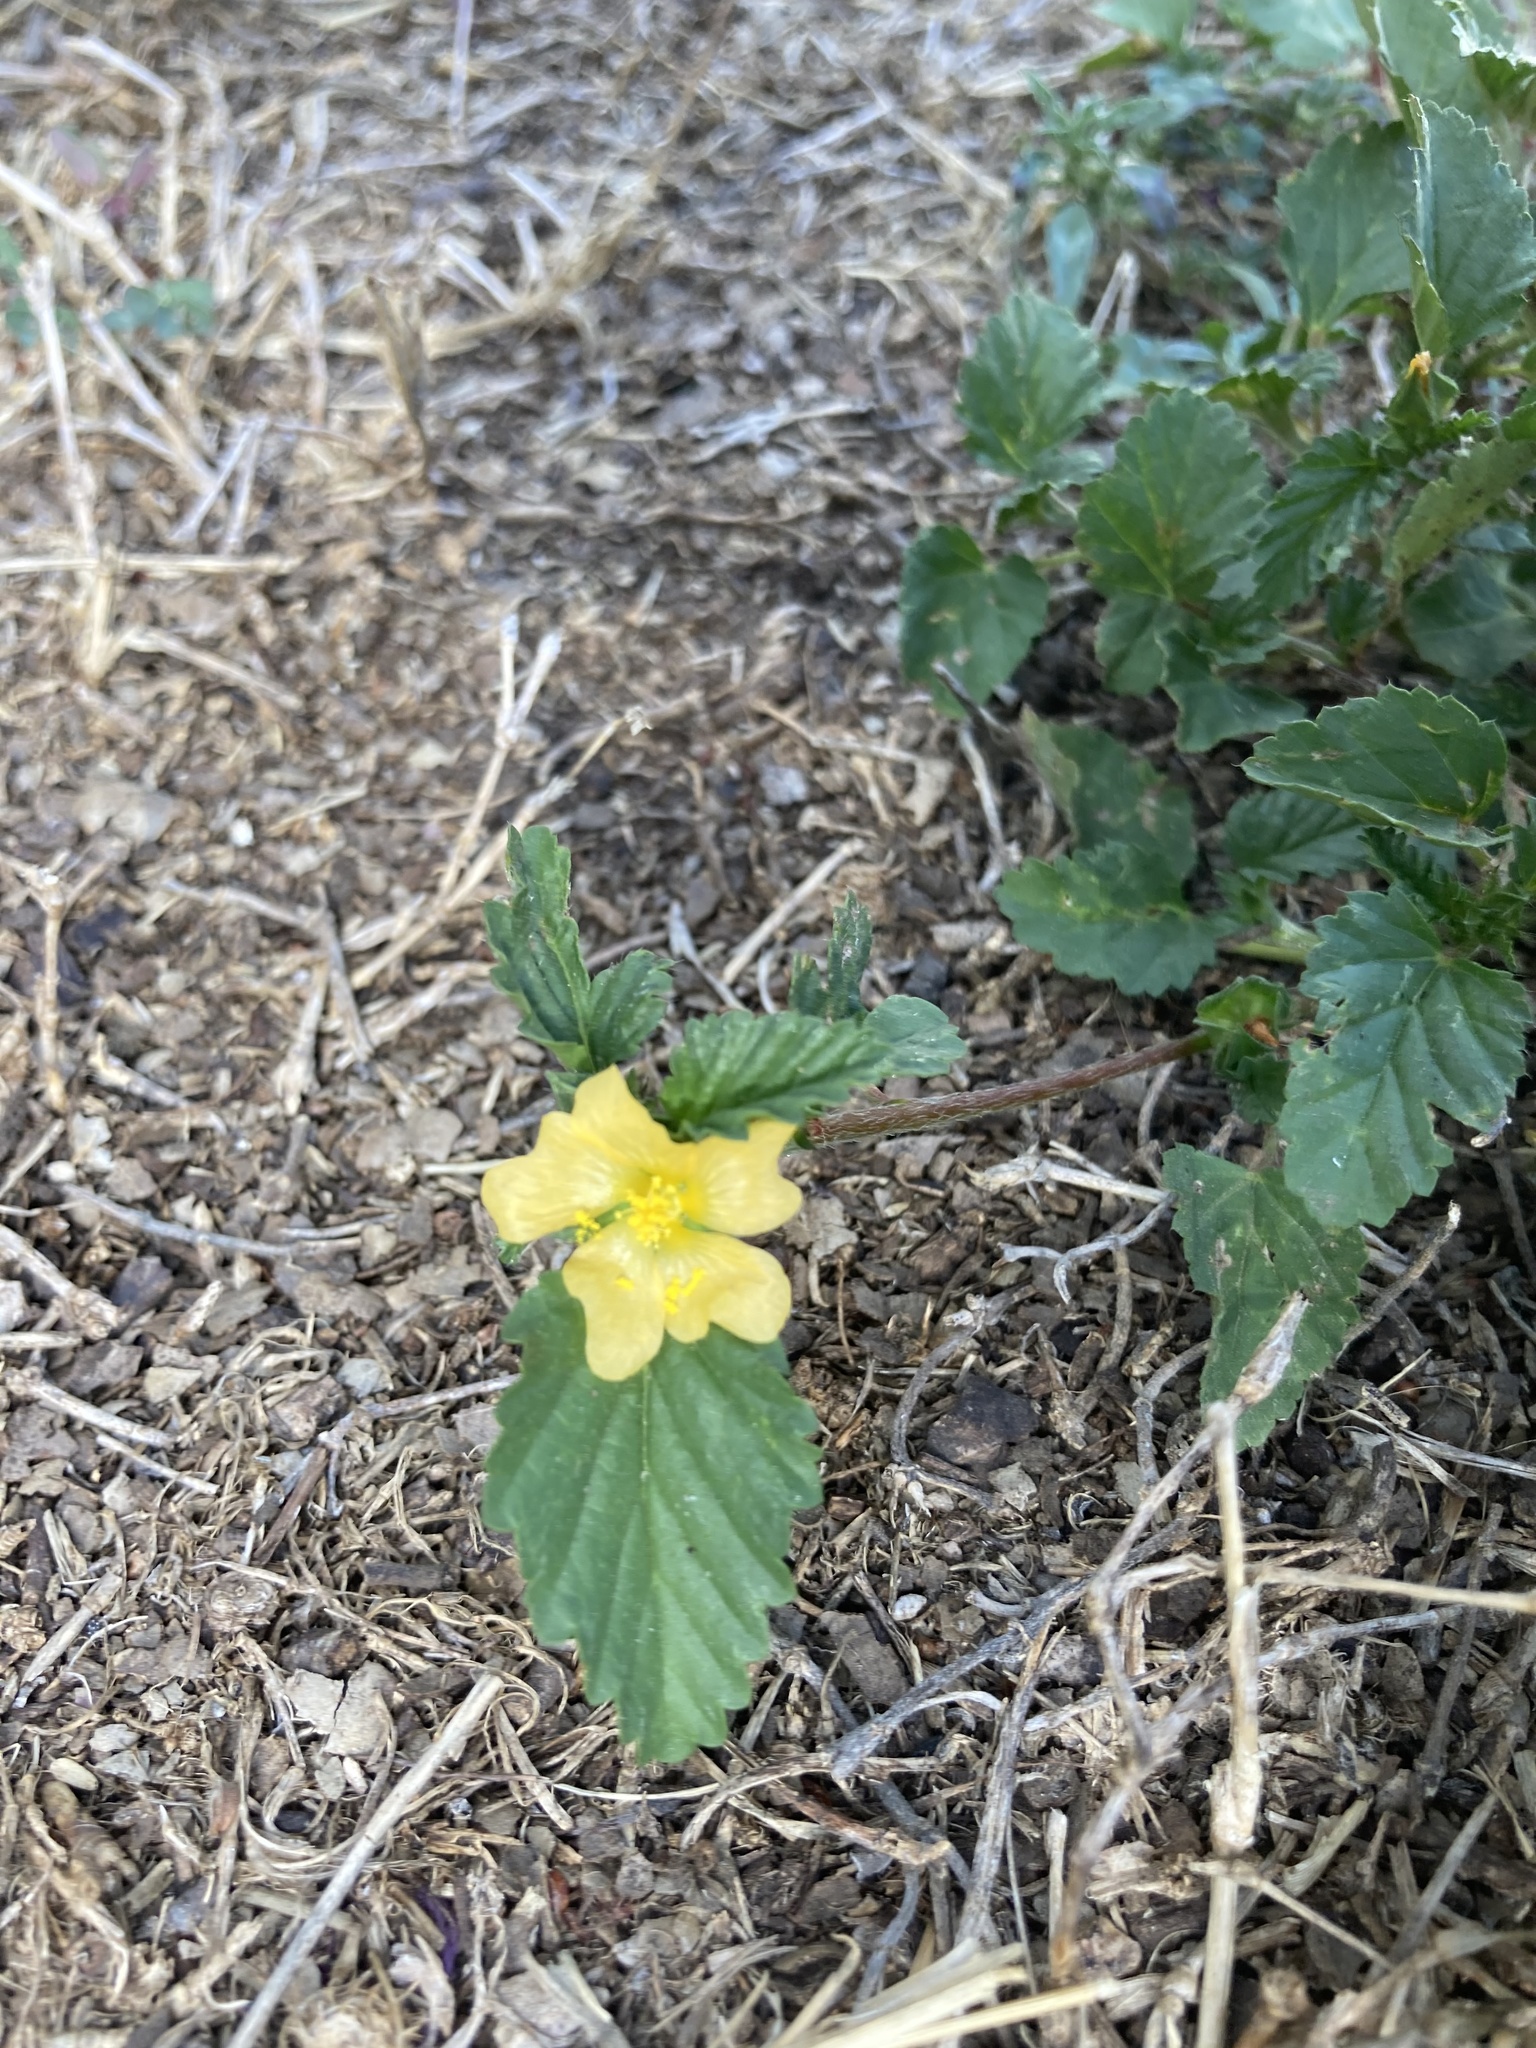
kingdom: Plantae
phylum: Tracheophyta
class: Magnoliopsida
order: Malvales
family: Malvaceae
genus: Malvastrum
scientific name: Malvastrum coromandelianum
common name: Threelobe false mallow
